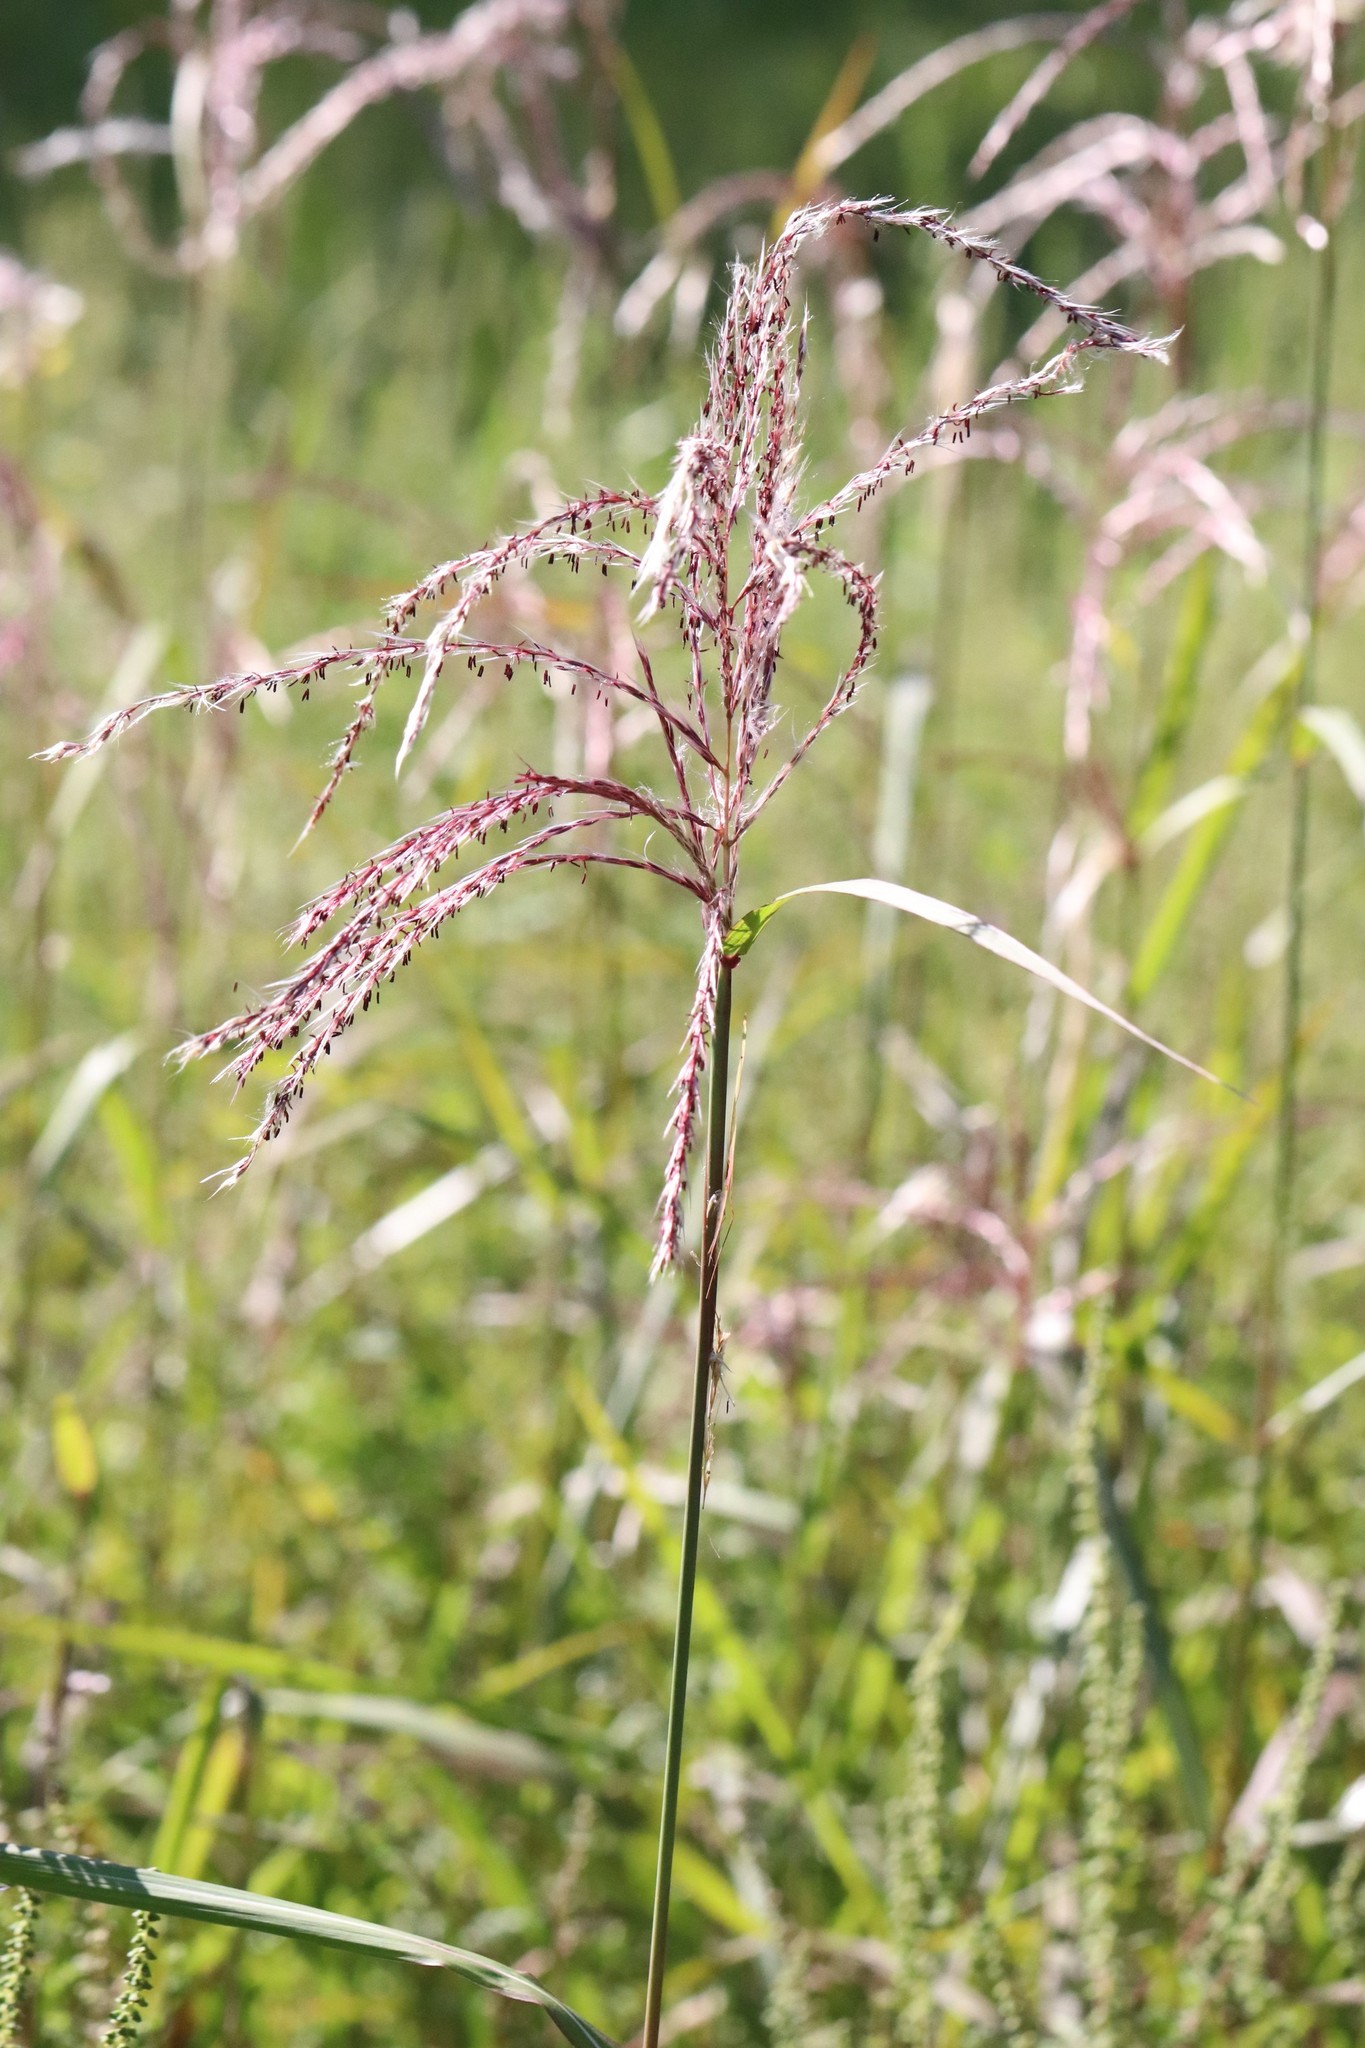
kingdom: Plantae
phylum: Tracheophyta
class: Liliopsida
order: Poales
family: Poaceae
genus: Miscanthus
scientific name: Miscanthus sacchariflorus
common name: Amur silver grass
